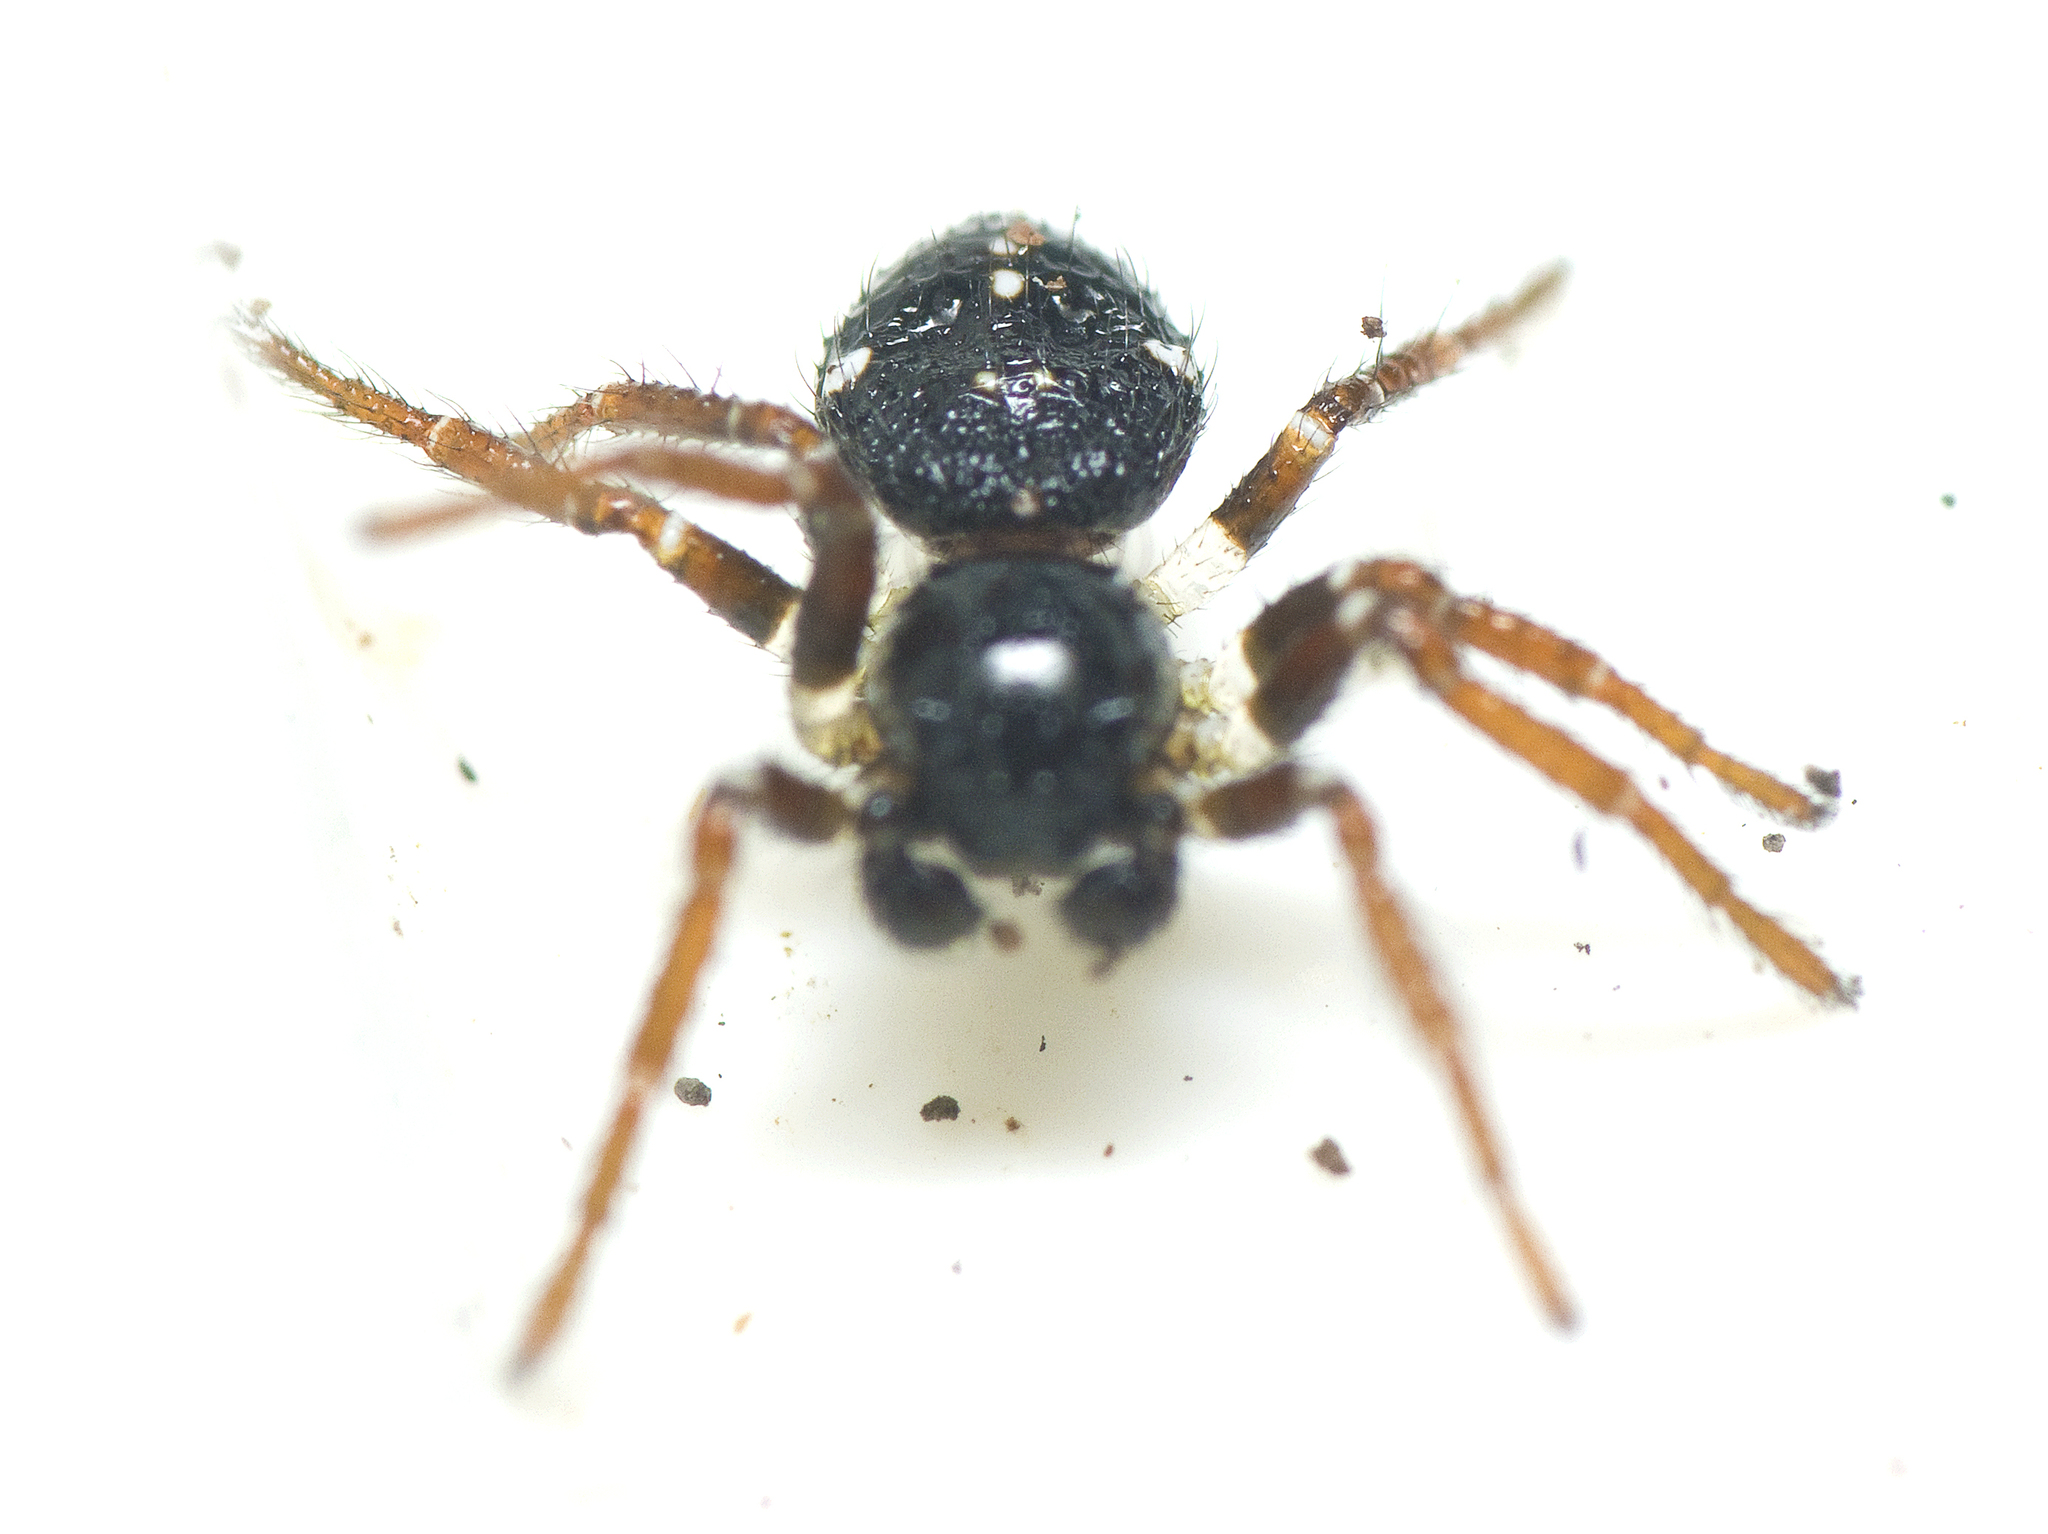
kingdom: Animalia
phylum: Arthropoda
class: Arachnida
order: Araneae
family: Thomisidae
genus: Tharpyna
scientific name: Tharpyna diademata
